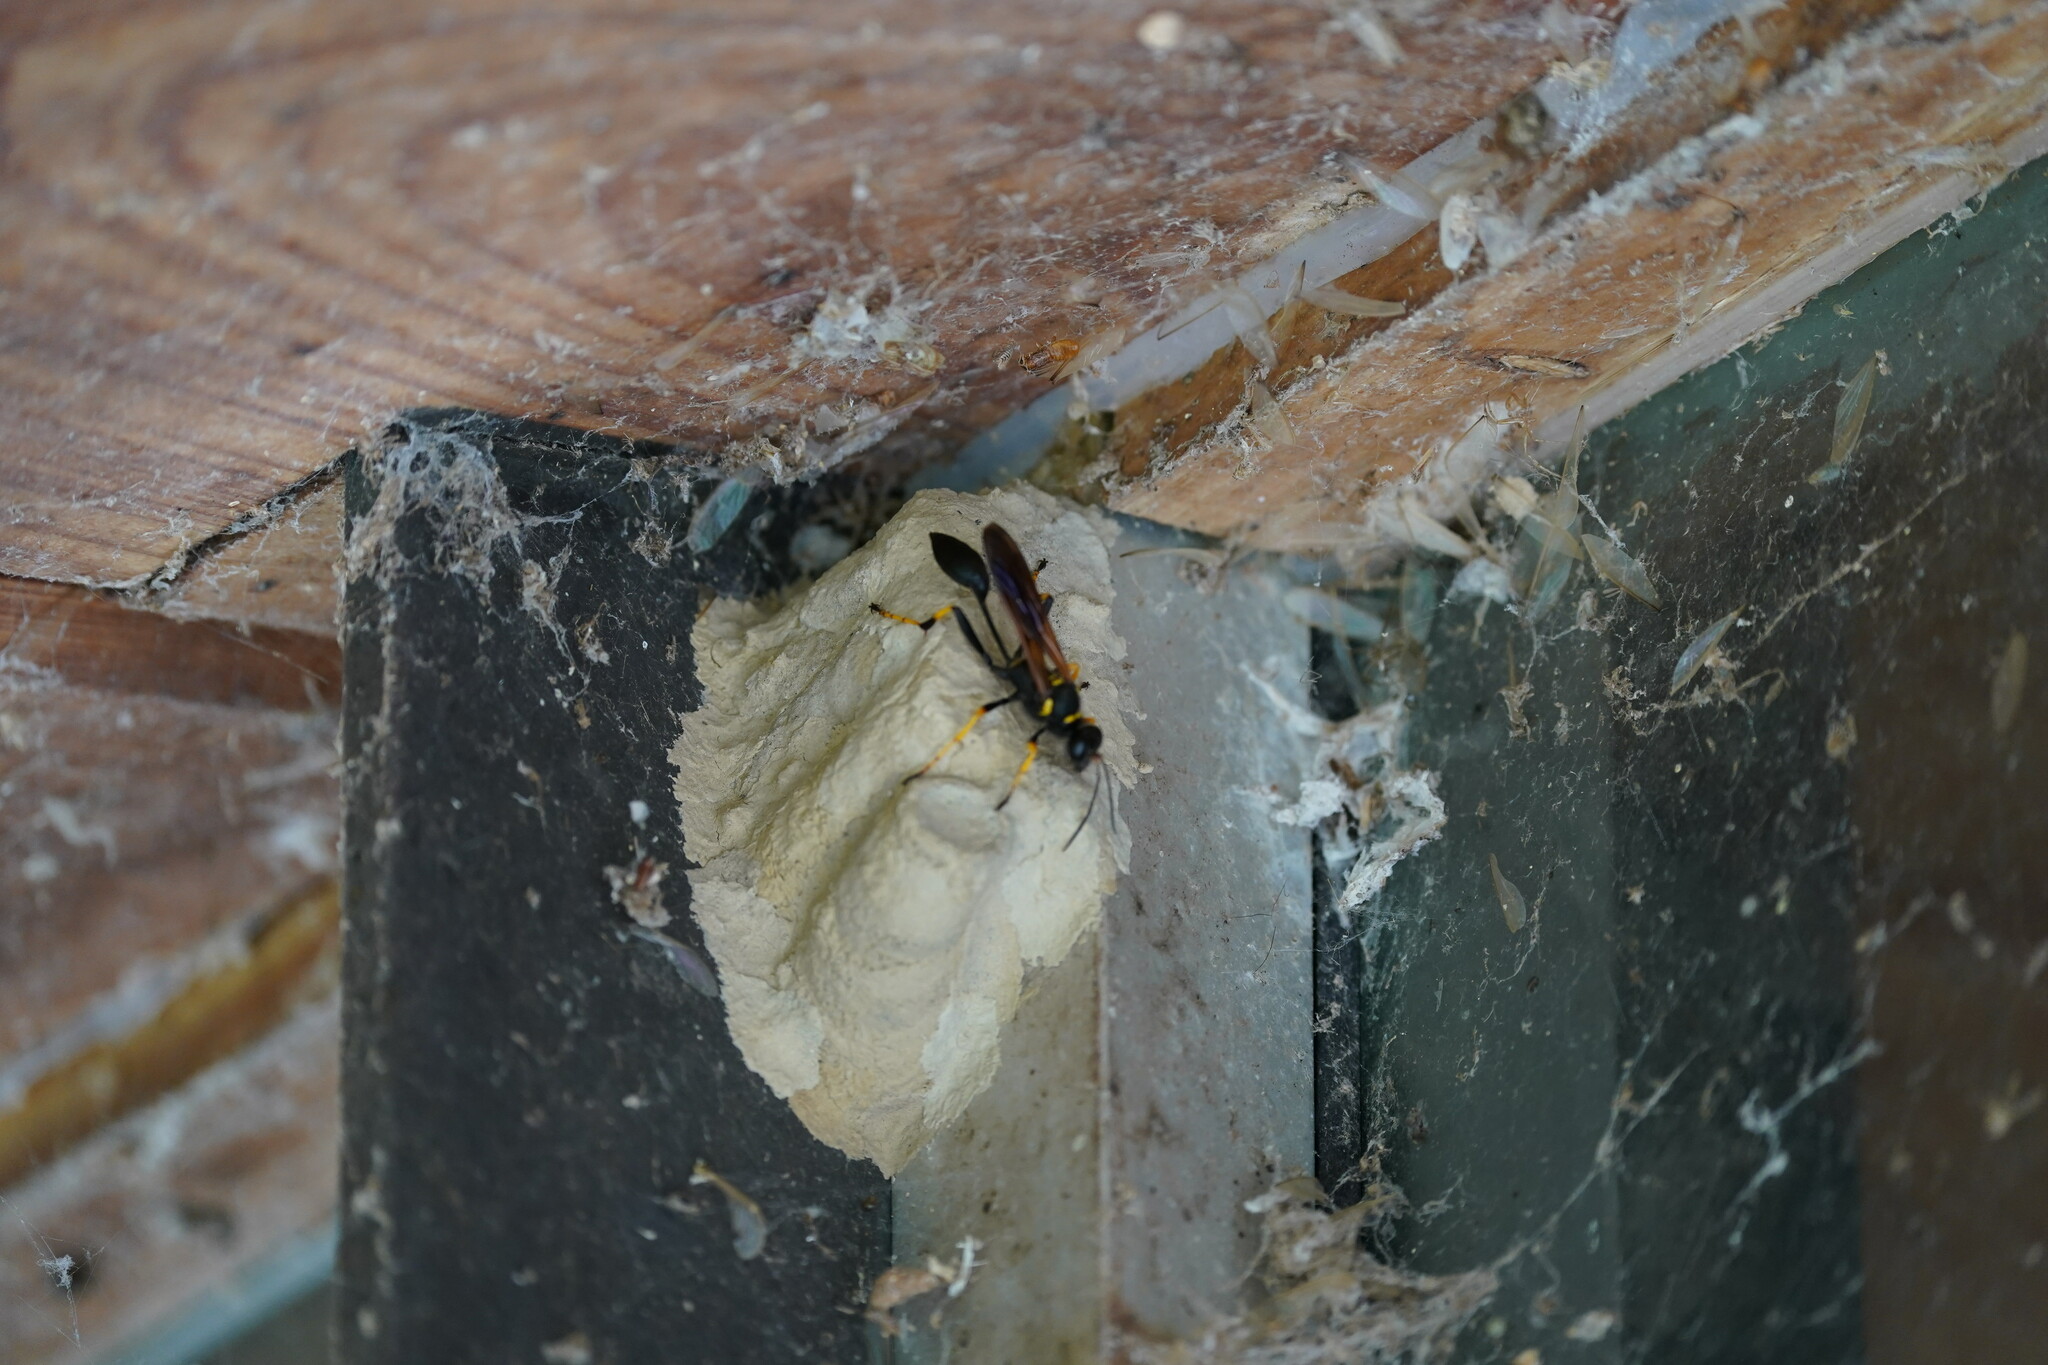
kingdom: Animalia
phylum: Arthropoda
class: Insecta
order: Hymenoptera
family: Sphecidae
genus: Sceliphron
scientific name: Sceliphron caementarium
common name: Mud dauber
